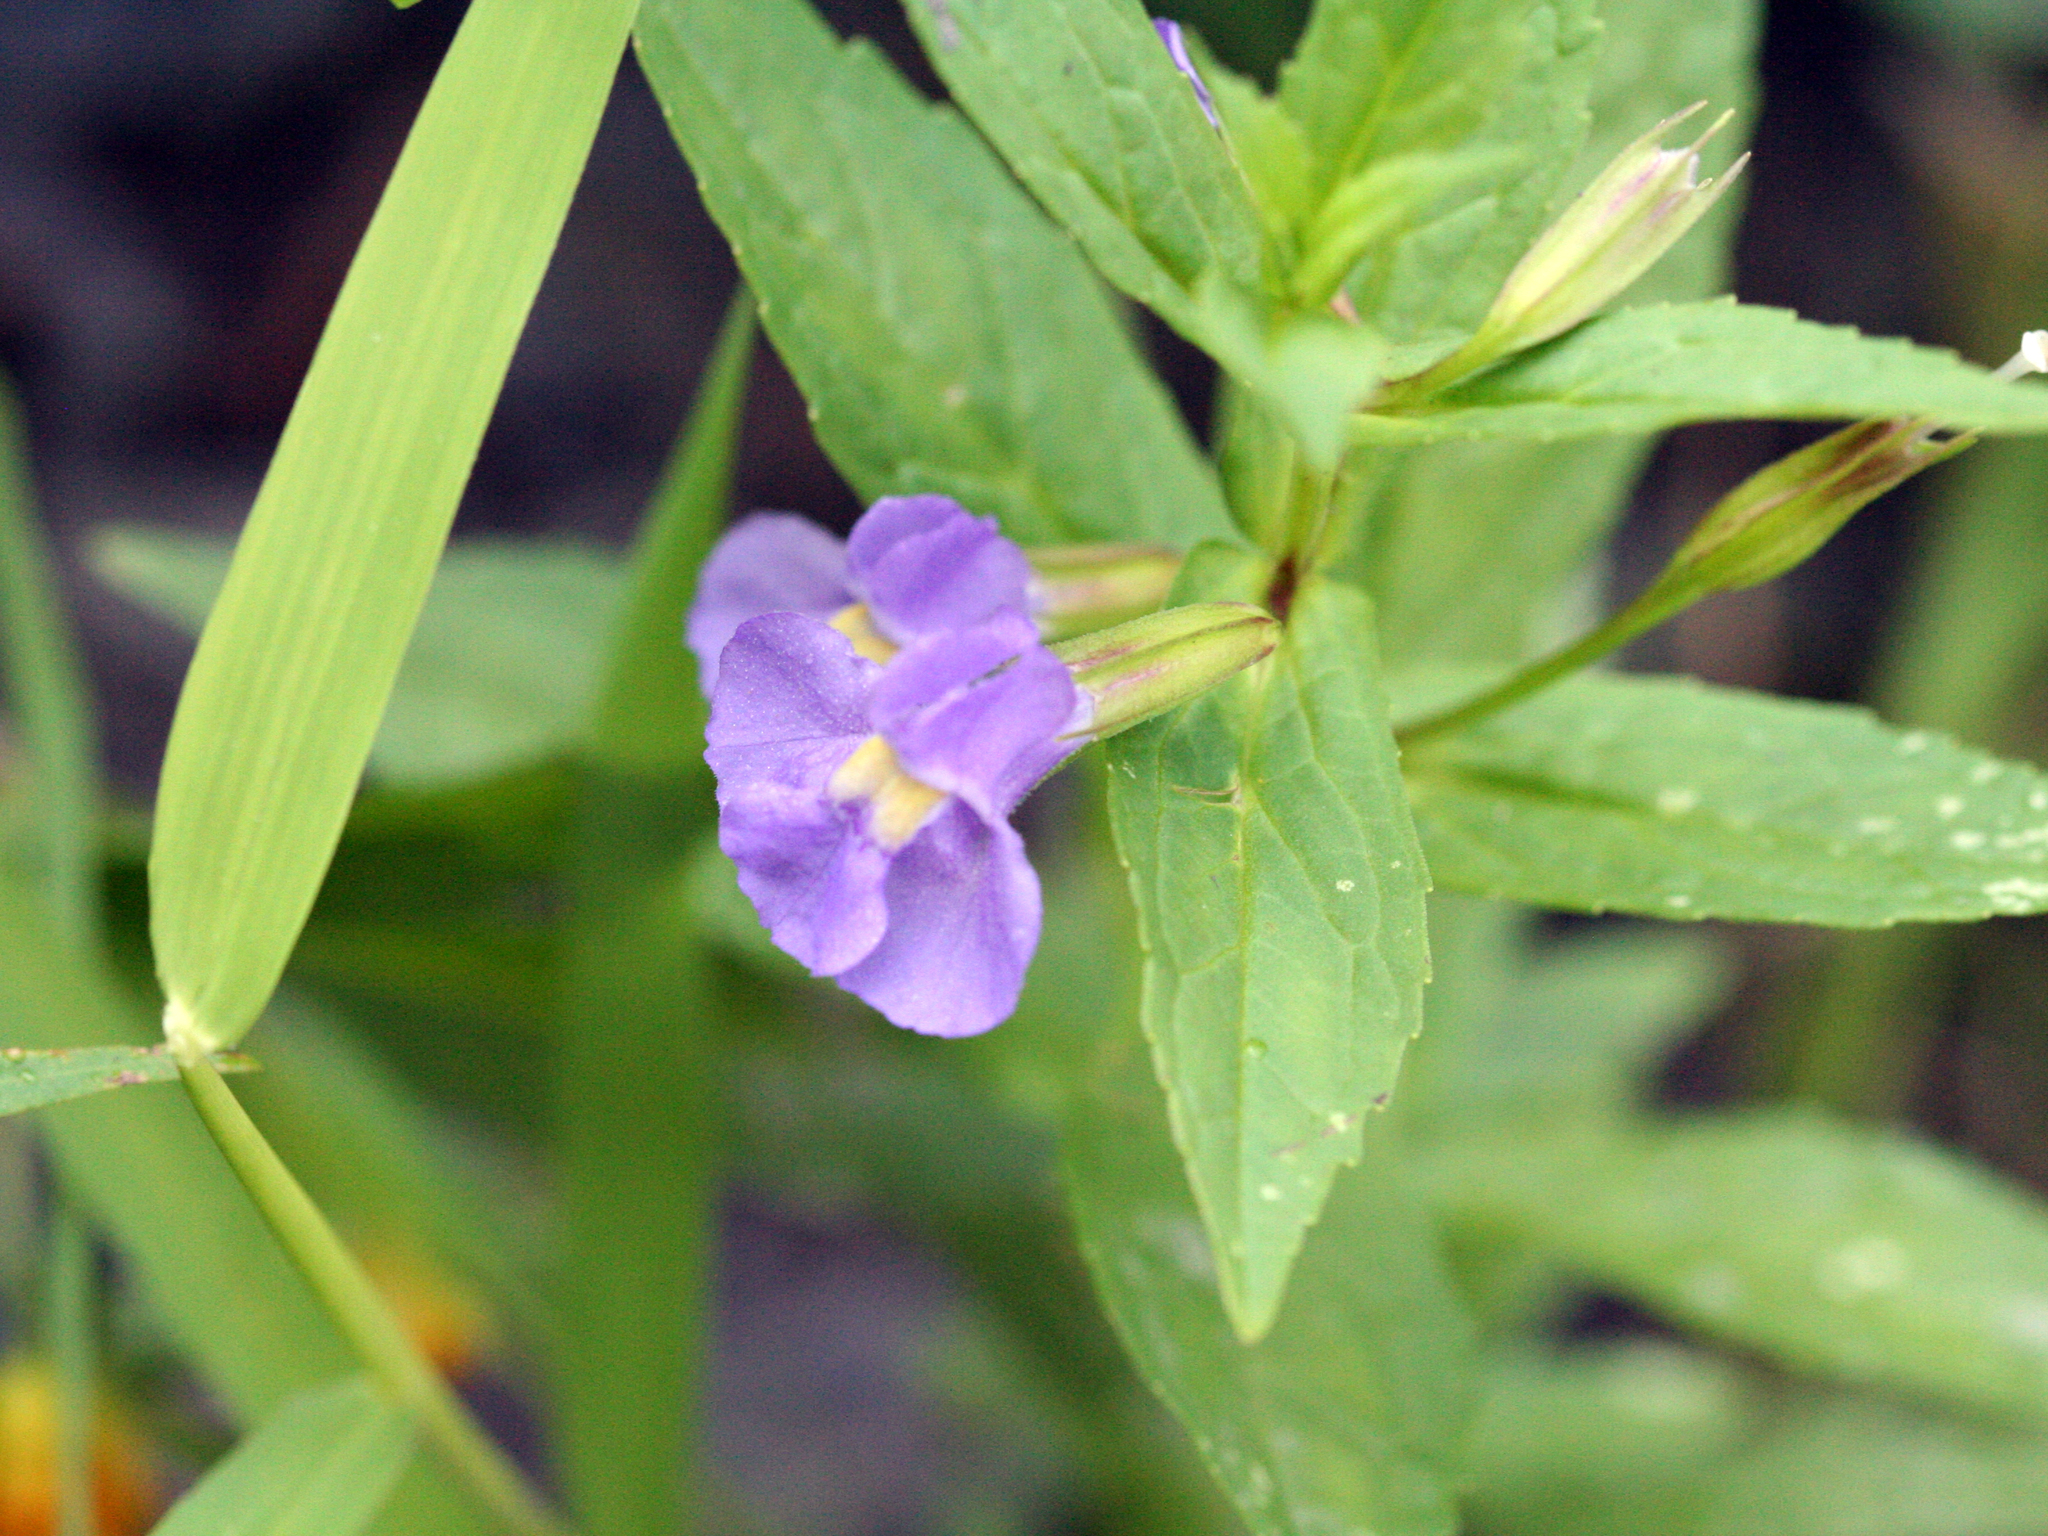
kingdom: Plantae
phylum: Tracheophyta
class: Magnoliopsida
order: Lamiales
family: Phrymaceae
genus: Mimulus
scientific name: Mimulus ringens
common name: Allegheny monkeyflower
